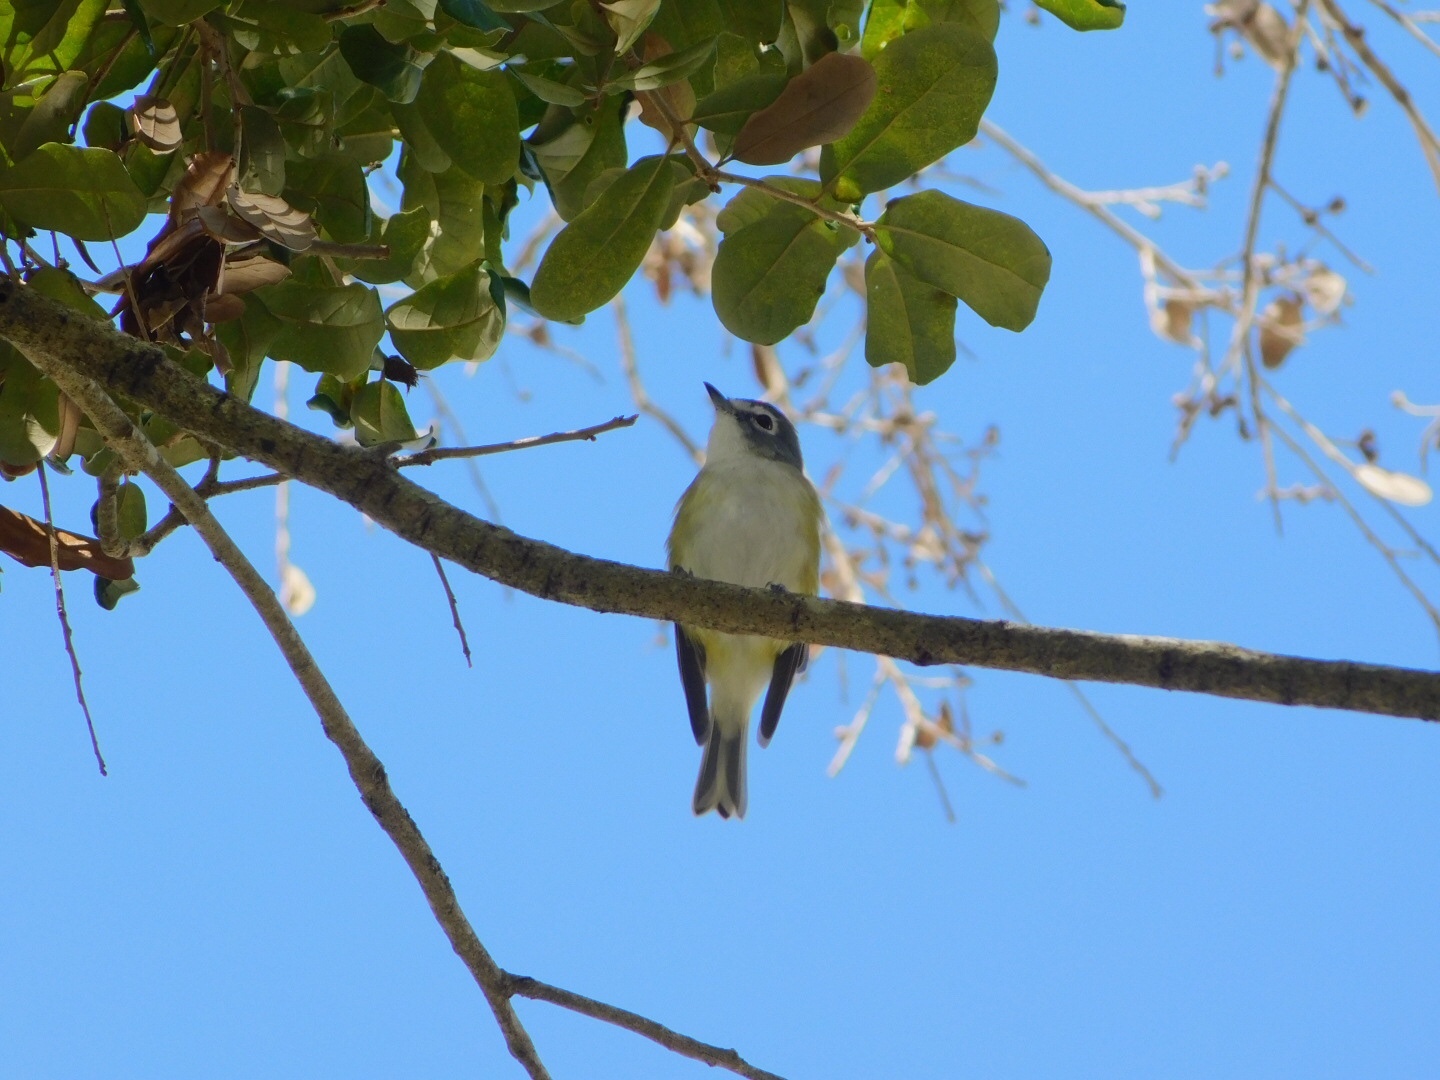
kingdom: Animalia
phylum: Chordata
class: Aves
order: Passeriformes
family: Vireonidae
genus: Vireo
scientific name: Vireo solitarius
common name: Blue-headed vireo
